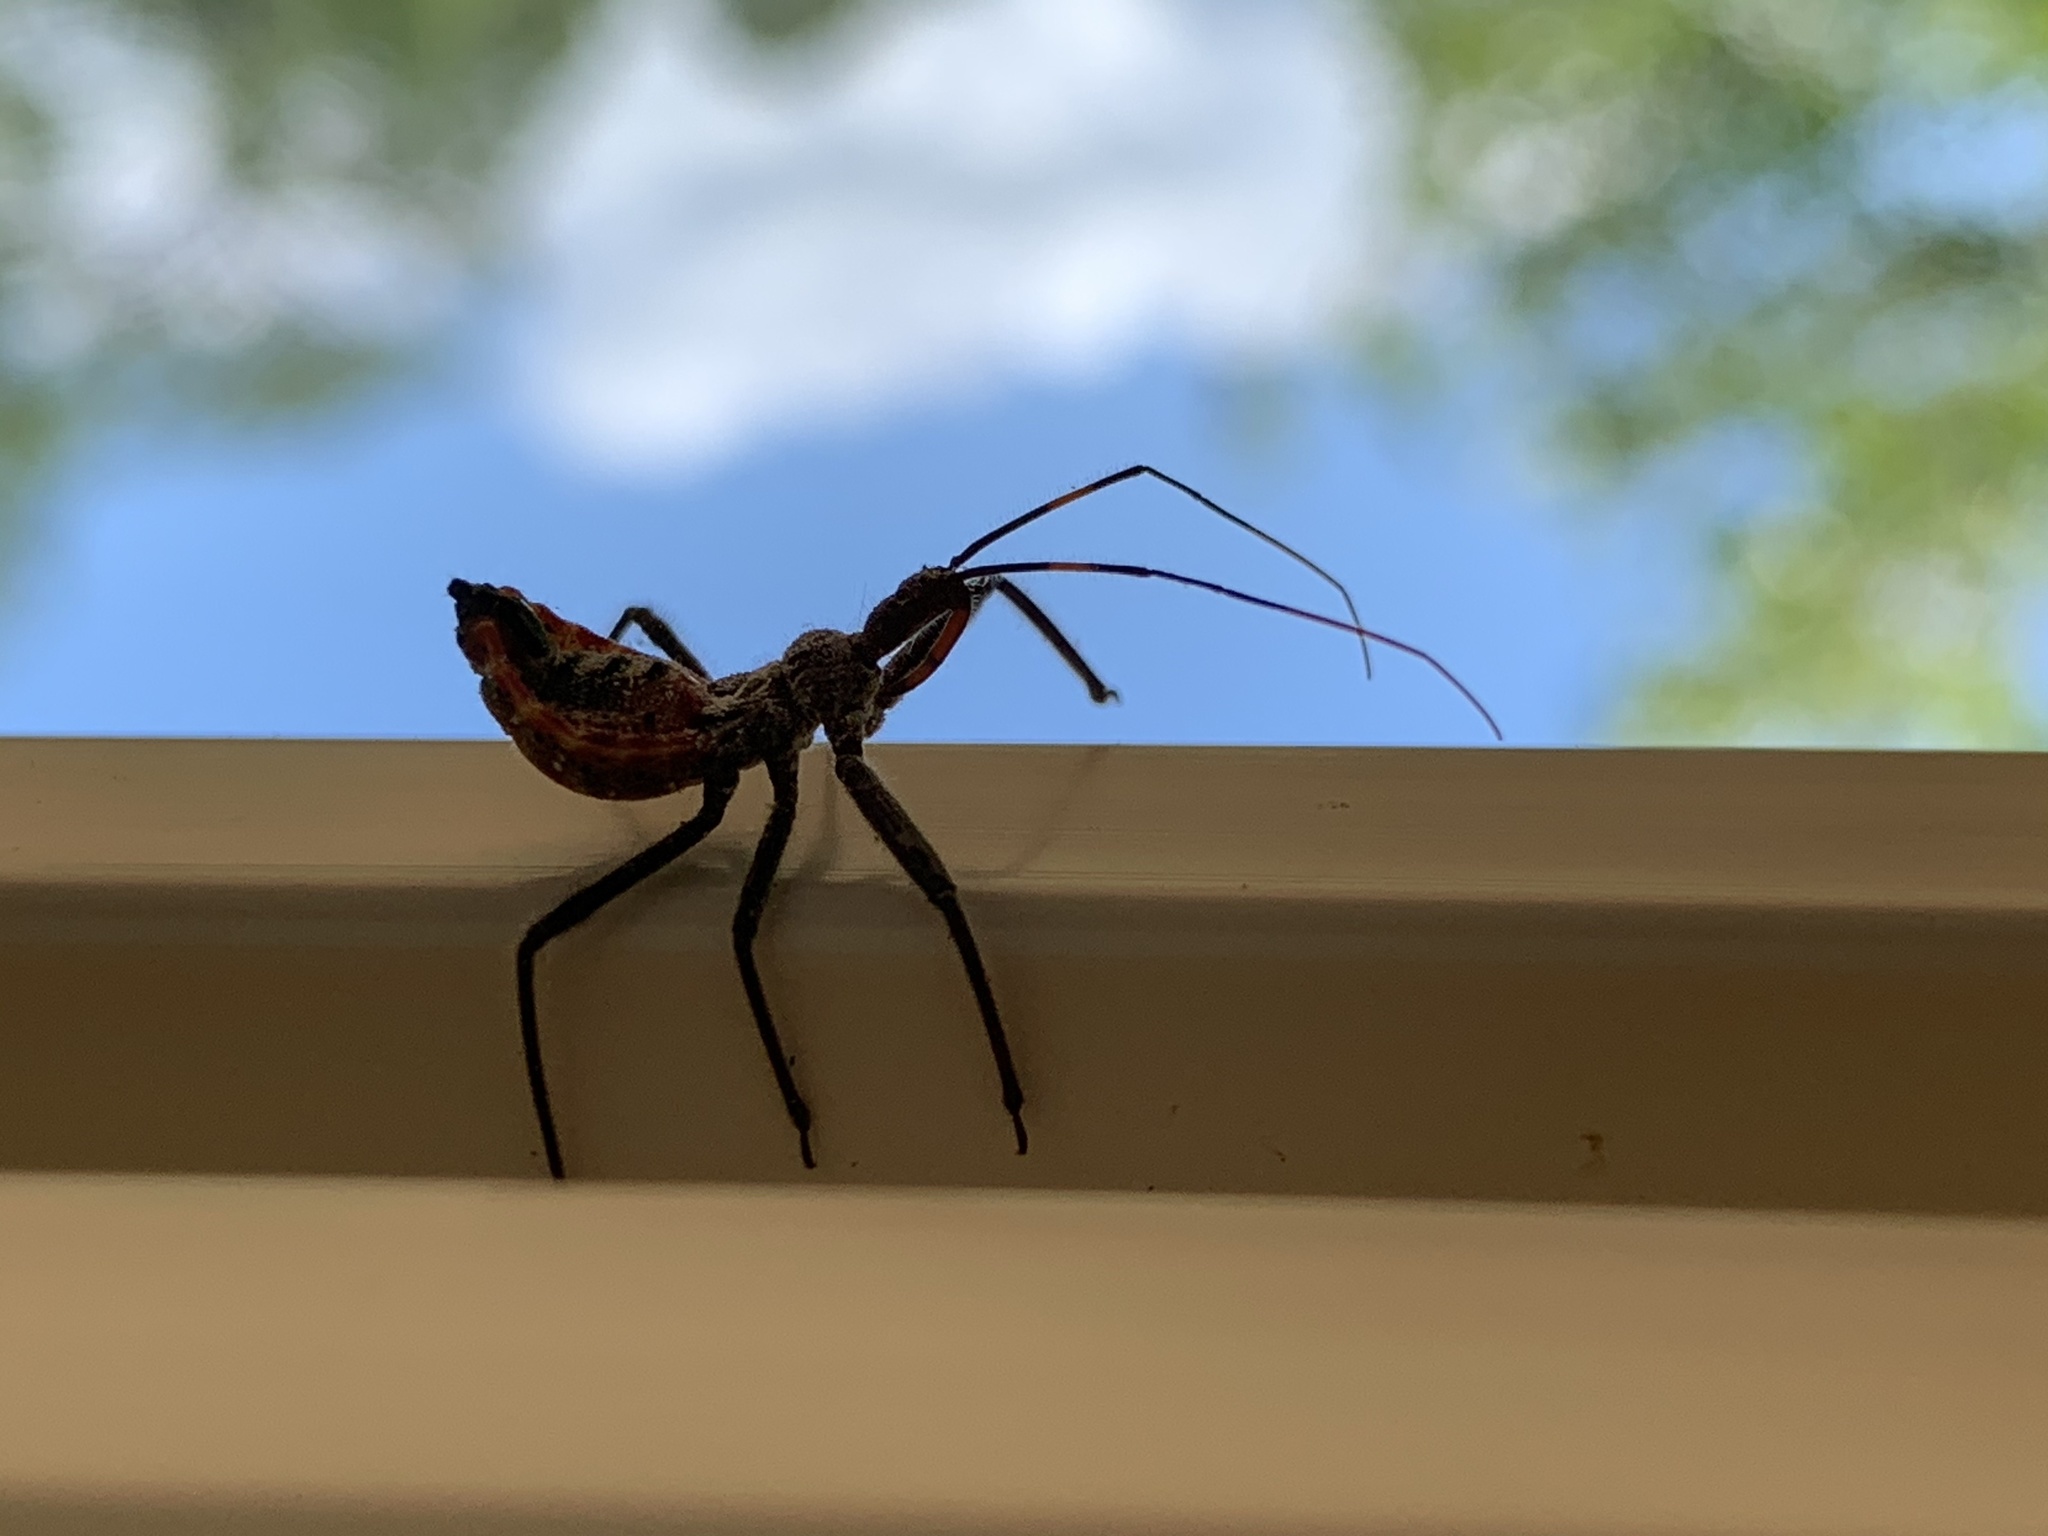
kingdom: Animalia
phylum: Arthropoda
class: Insecta
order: Hemiptera
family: Reduviidae
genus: Arilus
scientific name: Arilus cristatus
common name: North american wheel bug
